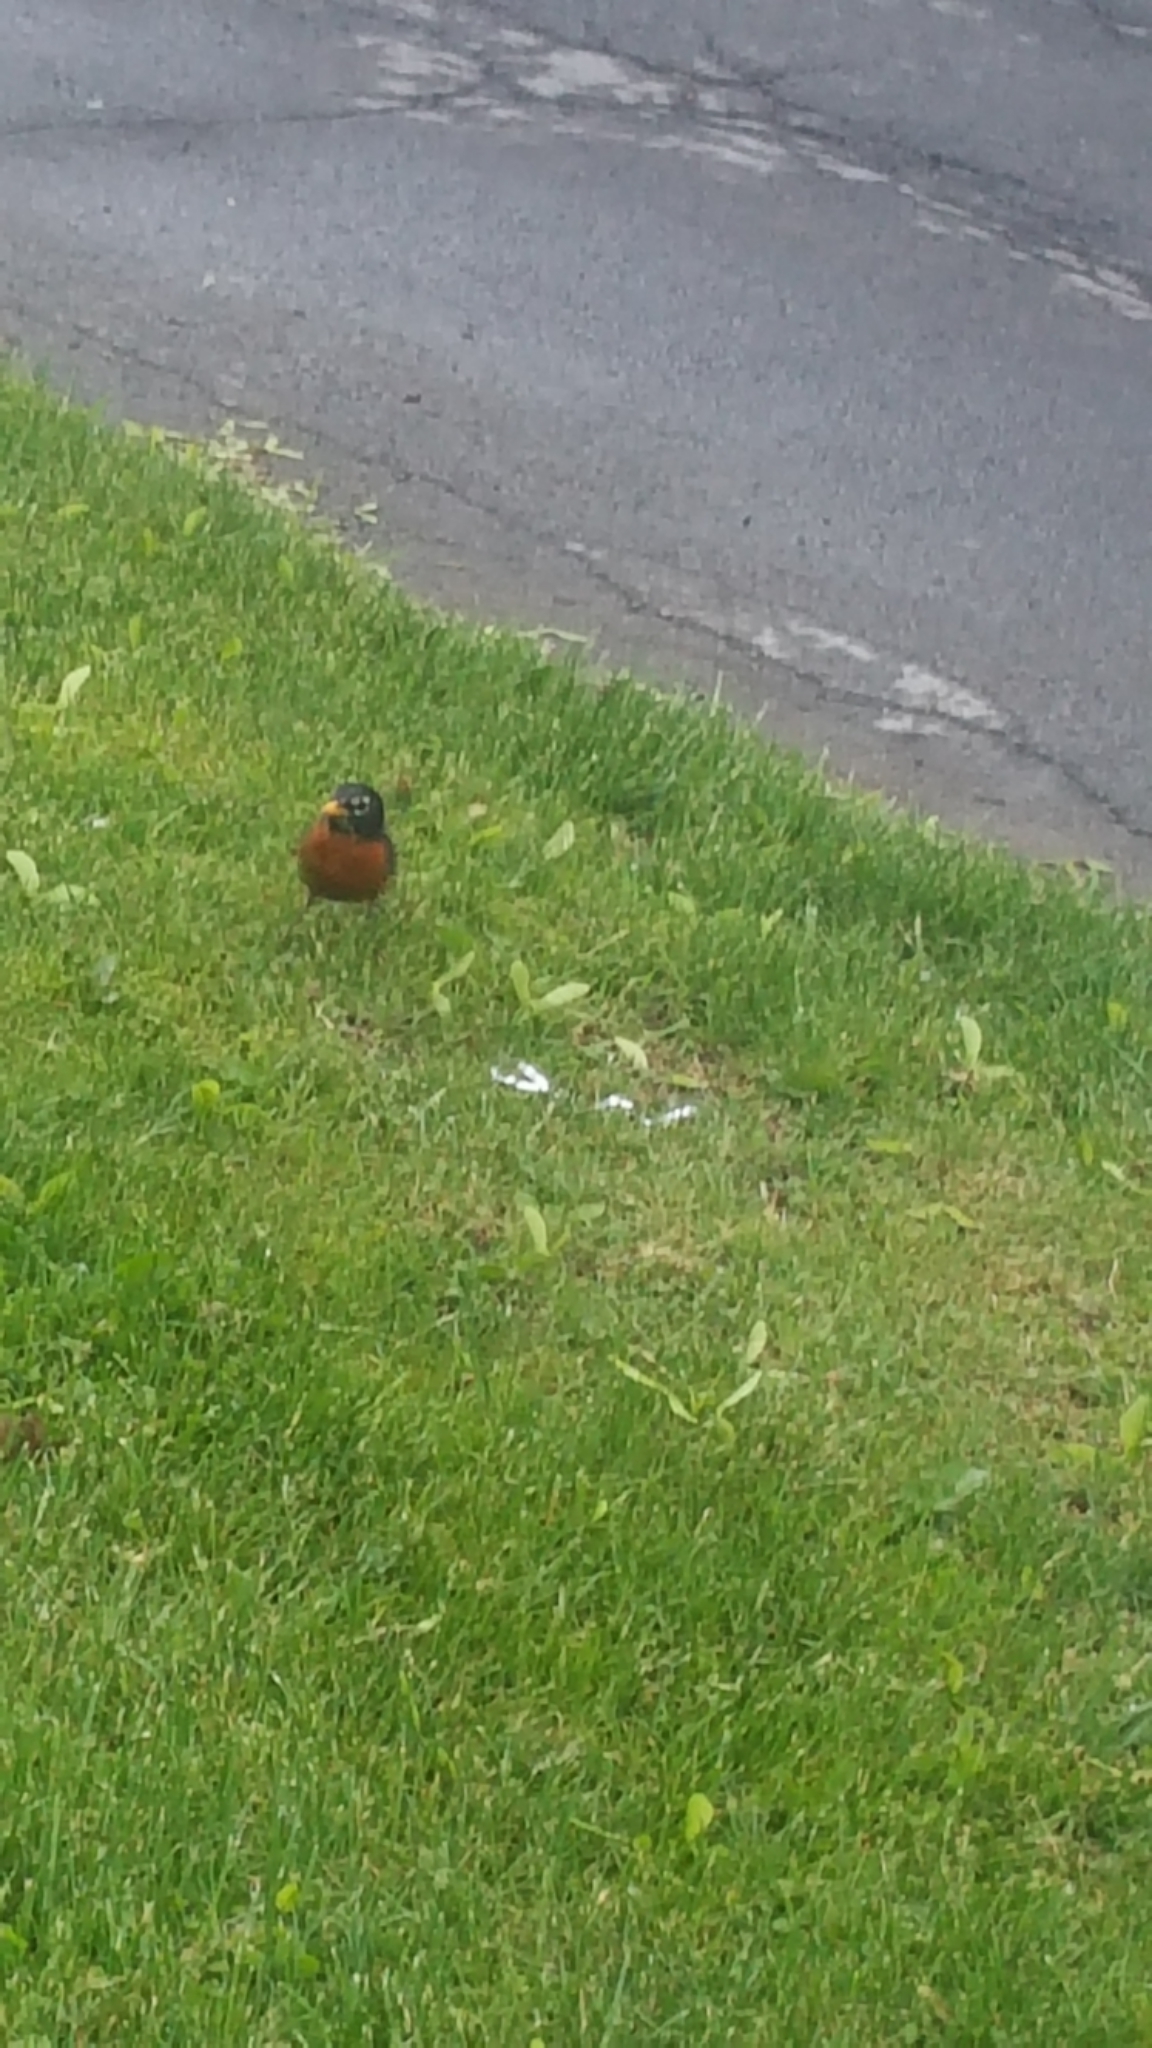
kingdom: Animalia
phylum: Chordata
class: Aves
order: Passeriformes
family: Turdidae
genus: Turdus
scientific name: Turdus migratorius
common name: American robin
